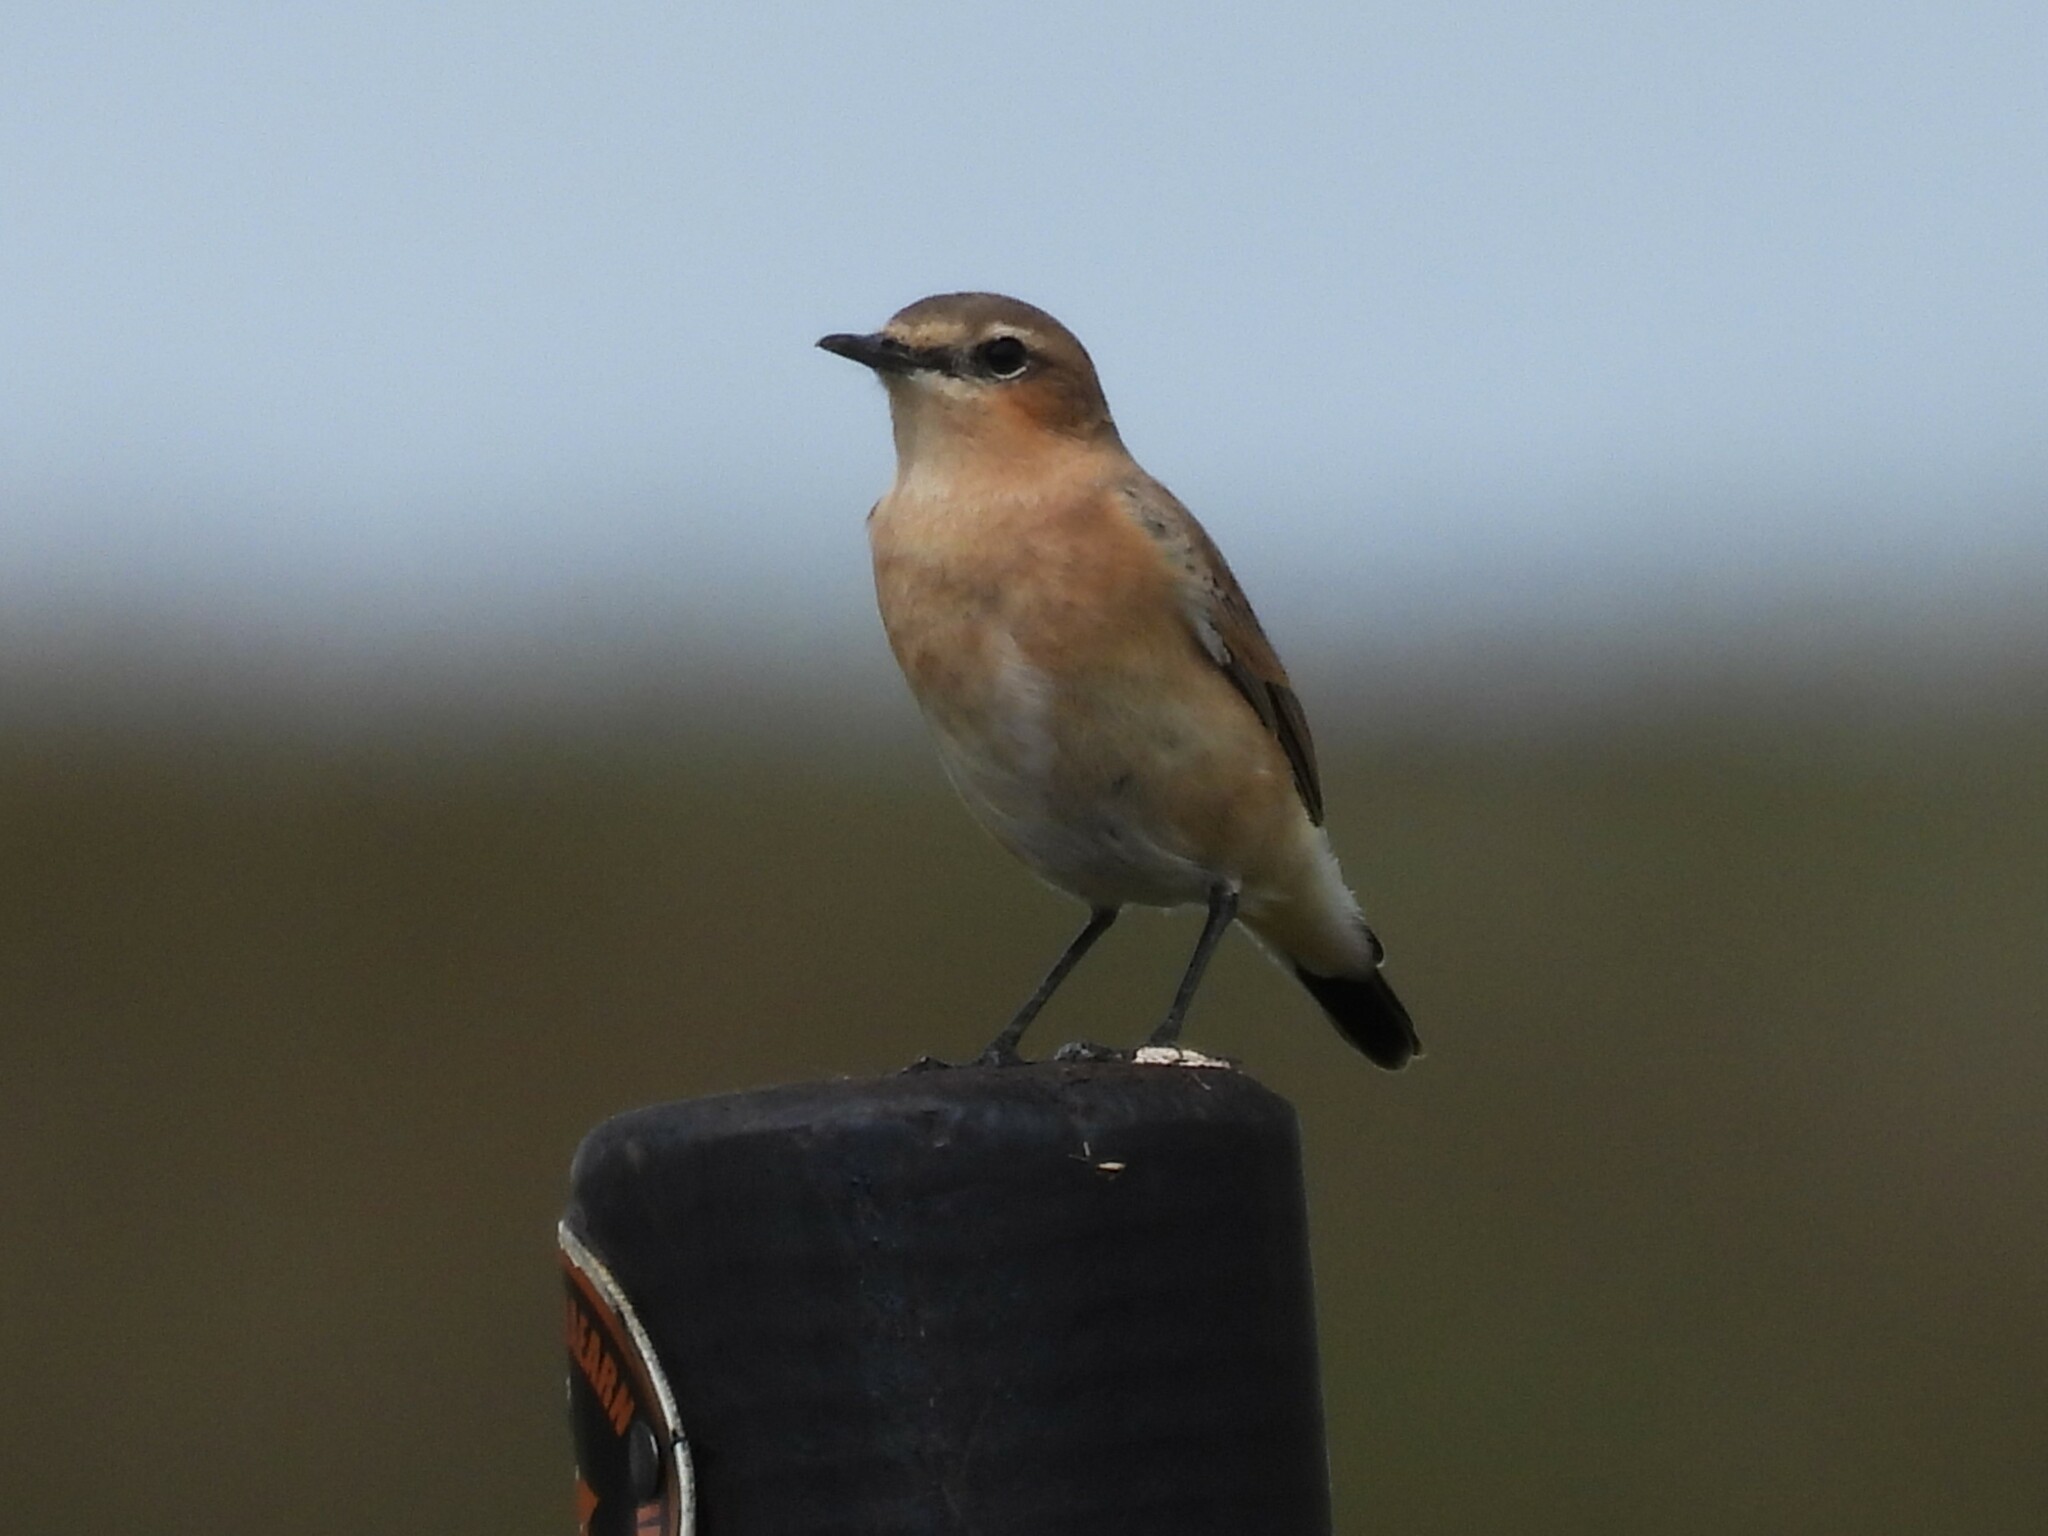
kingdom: Animalia
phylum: Chordata
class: Aves
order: Passeriformes
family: Muscicapidae
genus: Oenanthe
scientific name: Oenanthe oenanthe
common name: Northern wheatear
